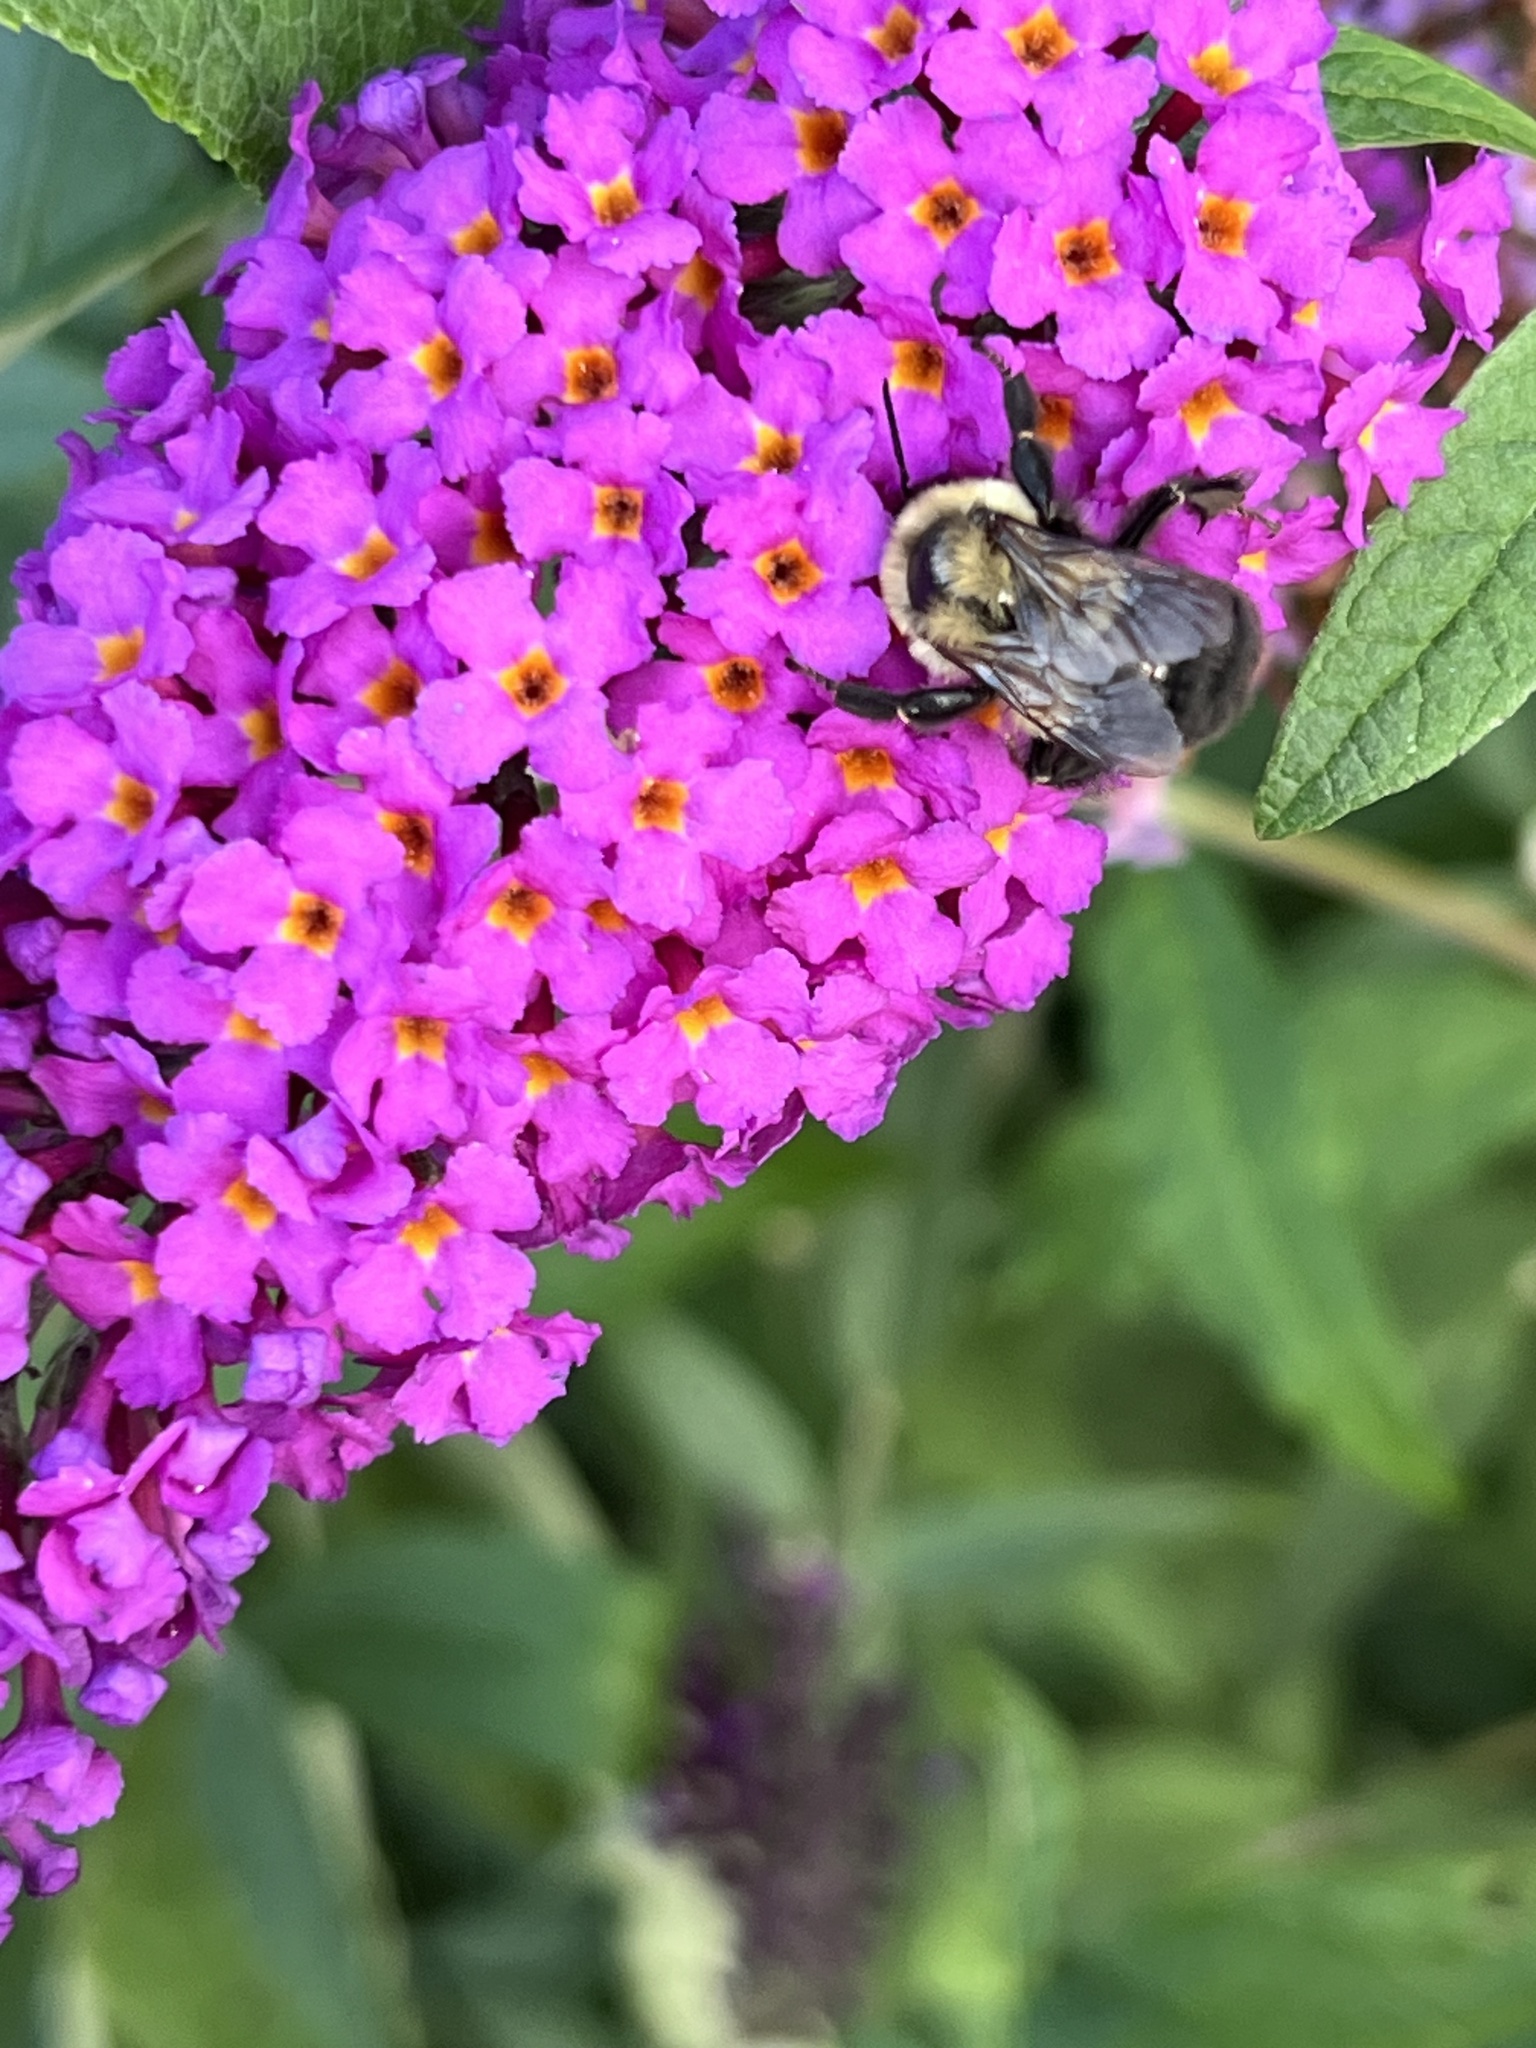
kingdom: Animalia
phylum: Arthropoda
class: Insecta
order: Hymenoptera
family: Apidae
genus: Bombus
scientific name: Bombus impatiens
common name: Common eastern bumble bee
